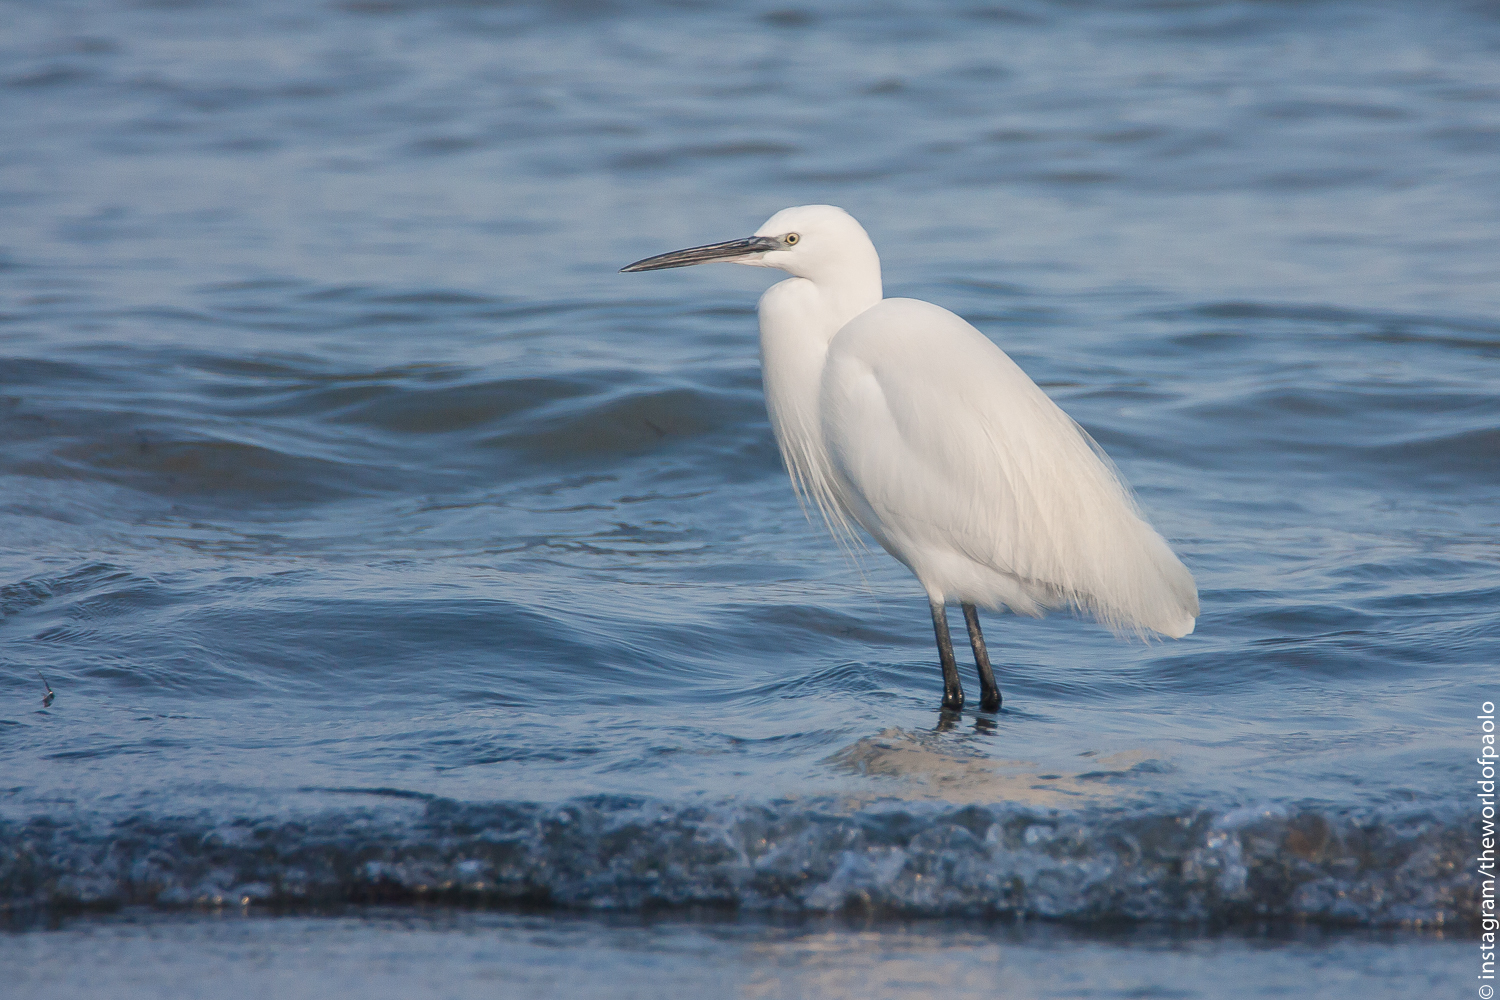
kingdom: Animalia
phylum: Chordata
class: Aves
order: Pelecaniformes
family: Ardeidae
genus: Egretta
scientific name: Egretta garzetta
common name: Little egret
